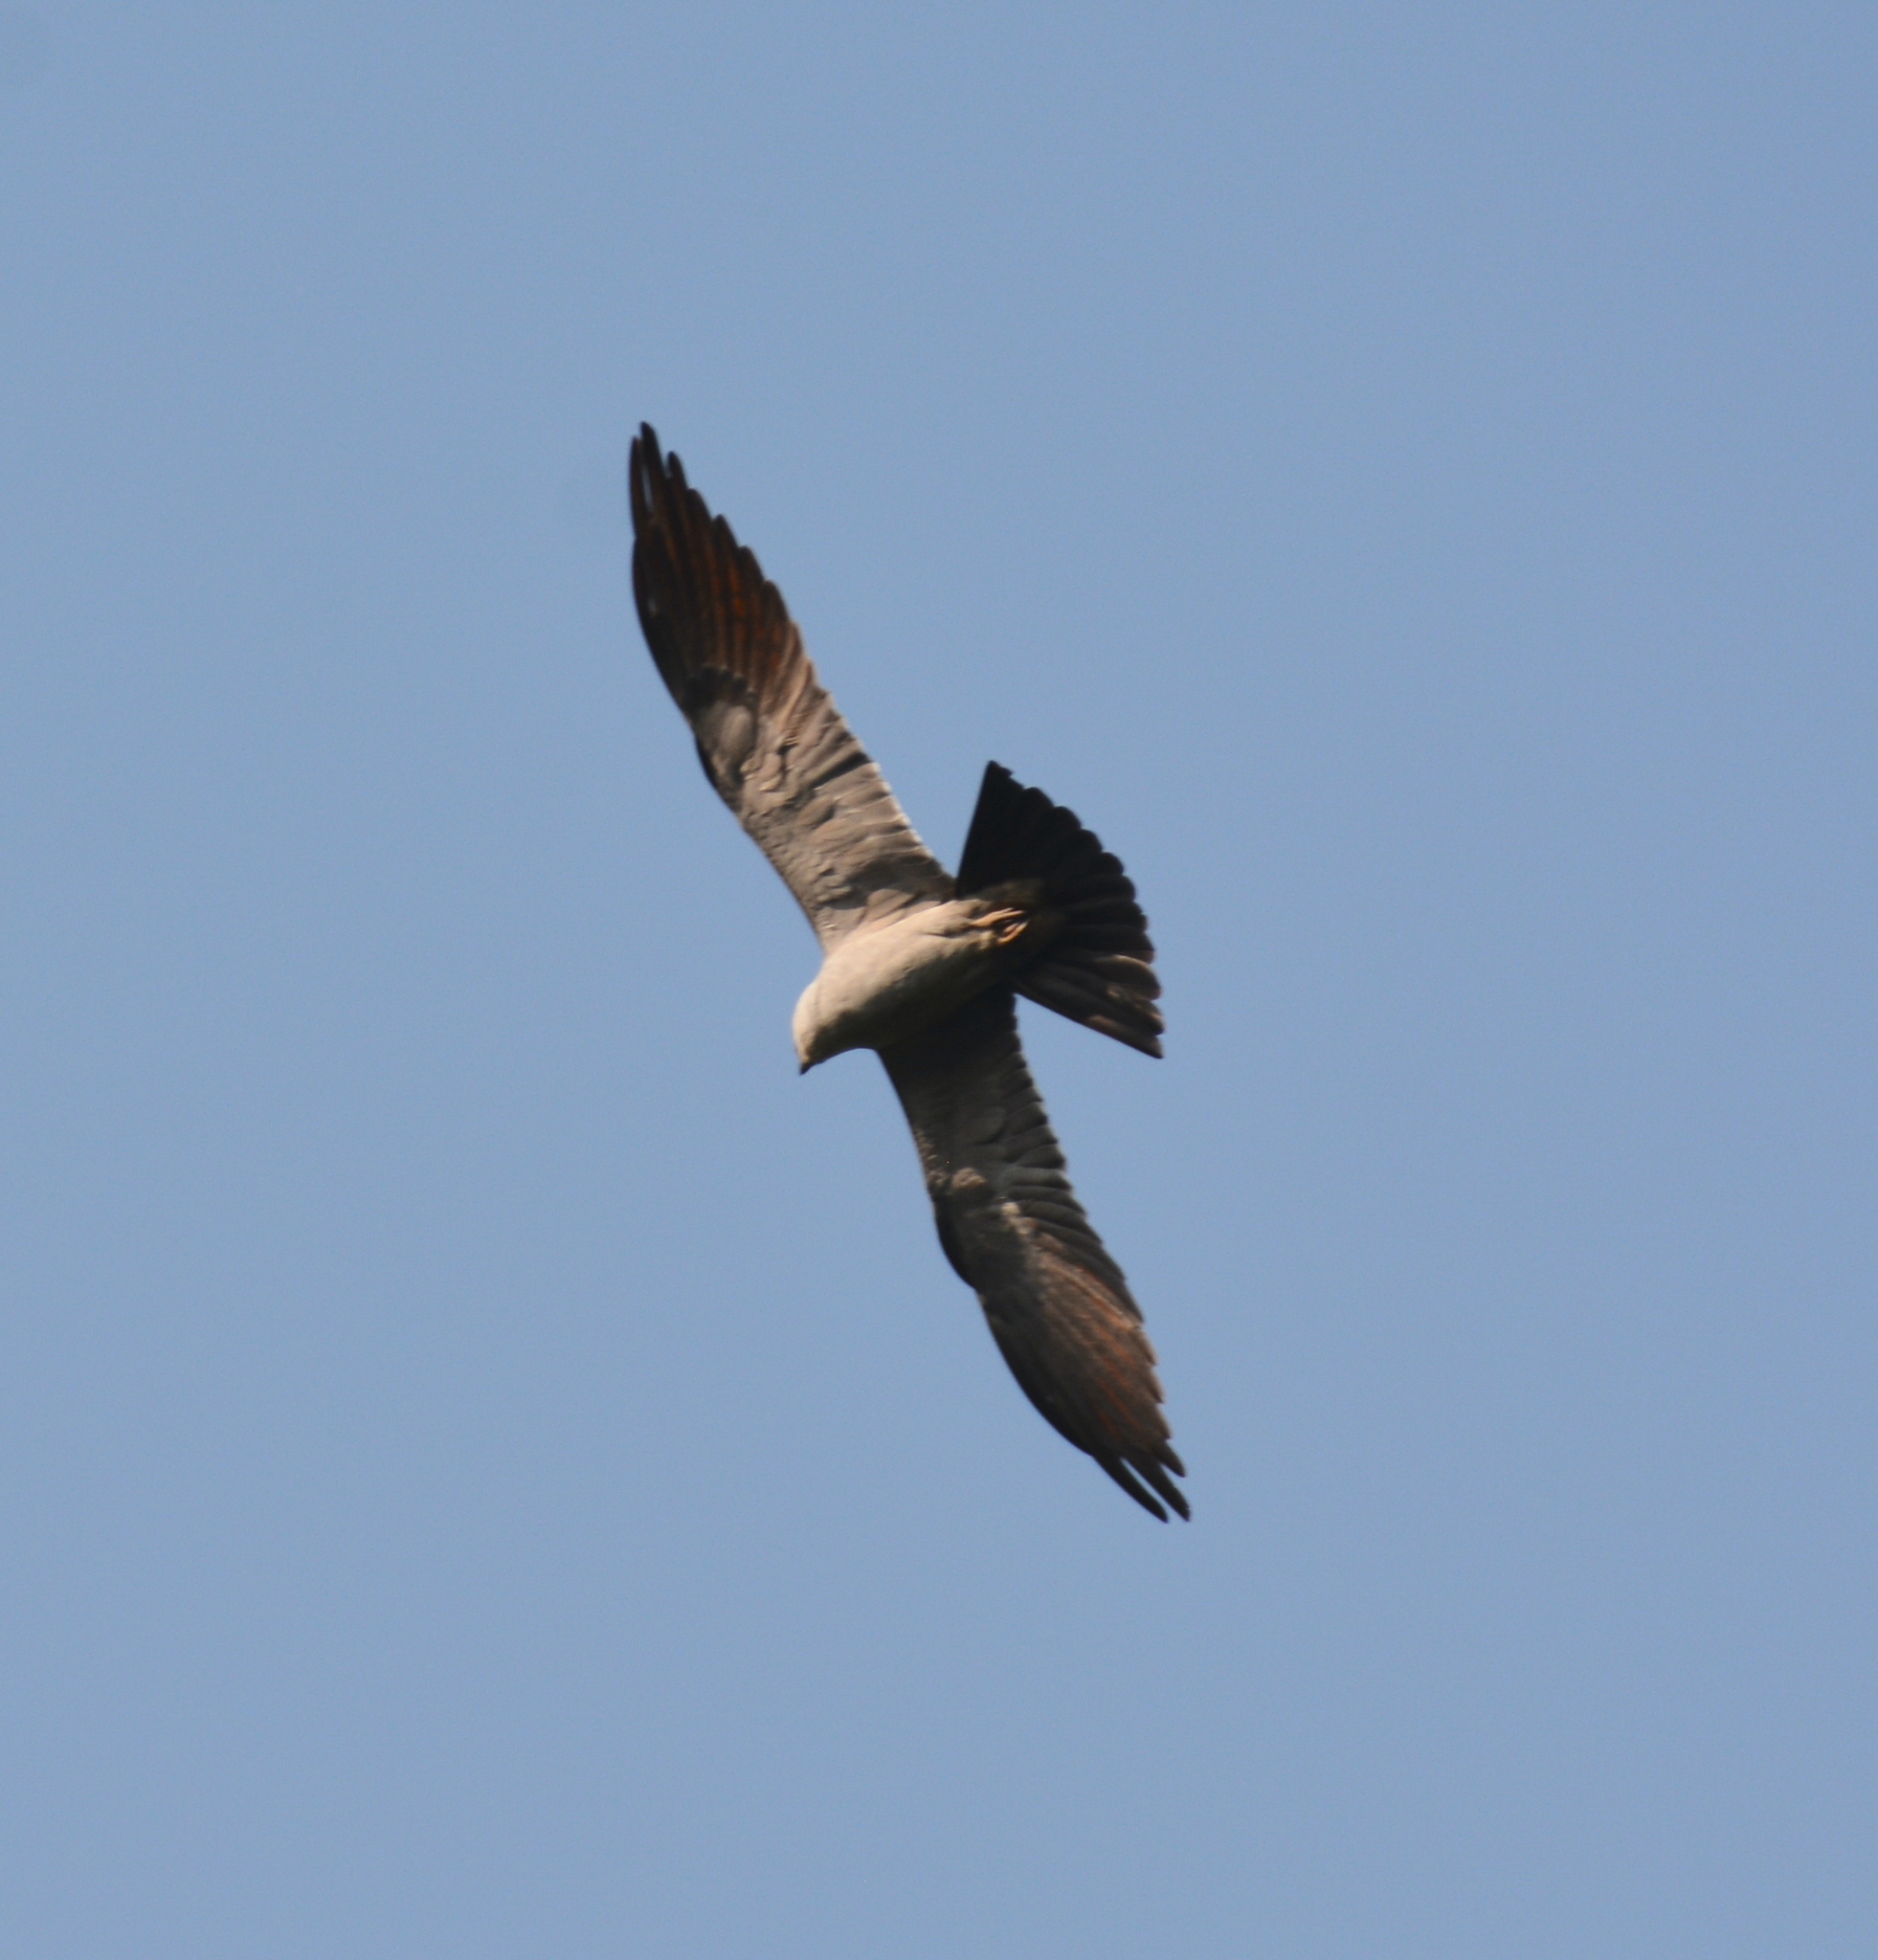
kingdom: Animalia
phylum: Chordata
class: Aves
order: Accipitriformes
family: Accipitridae
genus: Ictinia
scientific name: Ictinia mississippiensis
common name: Mississippi kite
